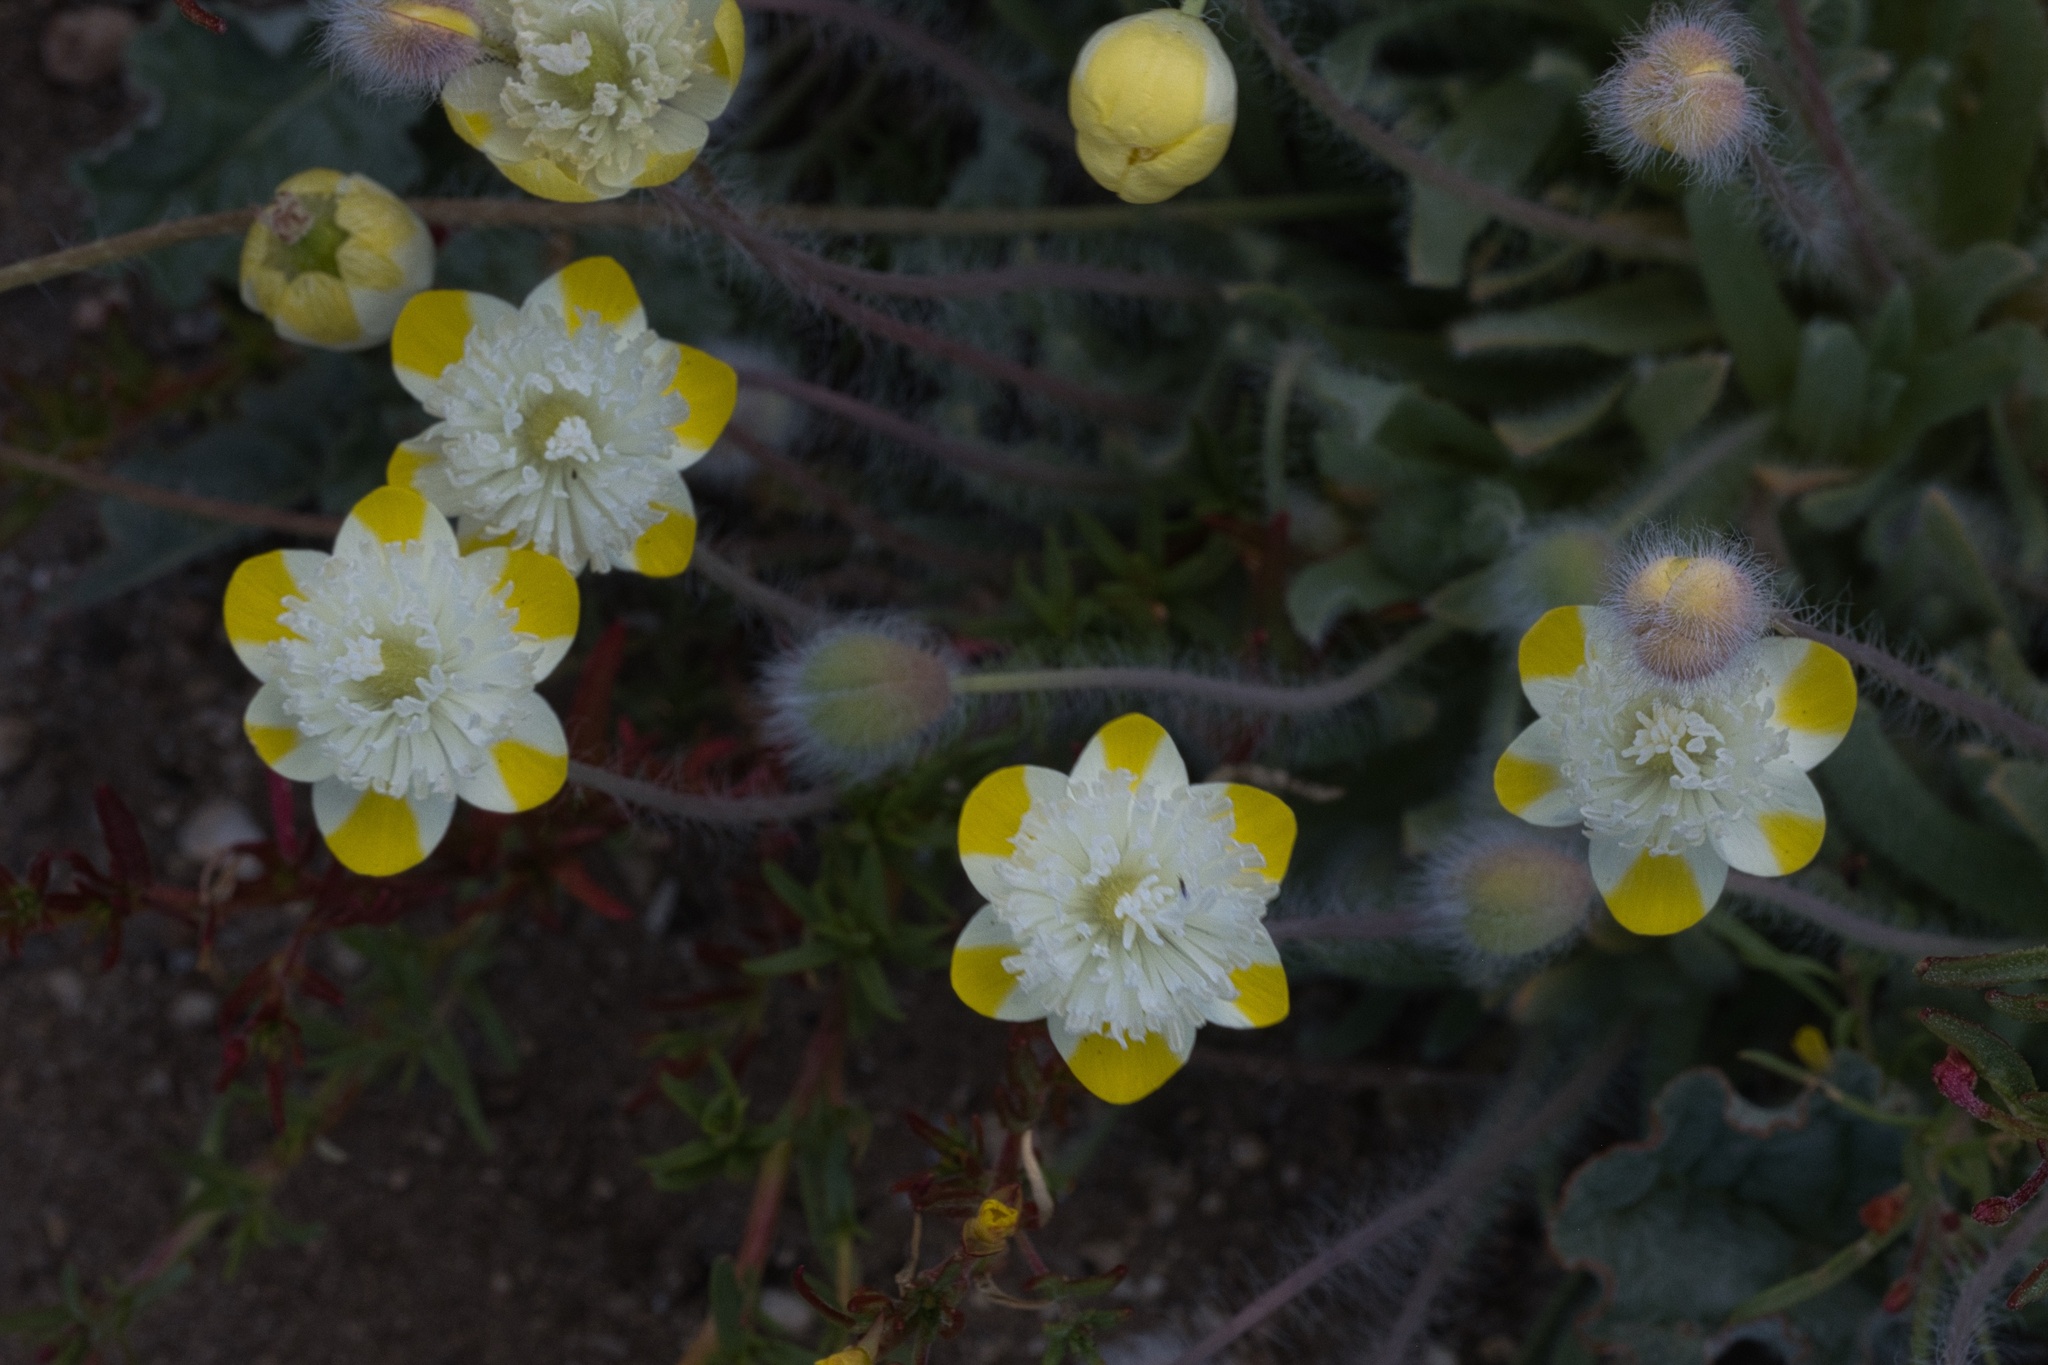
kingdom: Plantae
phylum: Tracheophyta
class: Magnoliopsida
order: Ranunculales
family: Papaveraceae
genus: Platystemon
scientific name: Platystemon californicus
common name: Cream-cups
